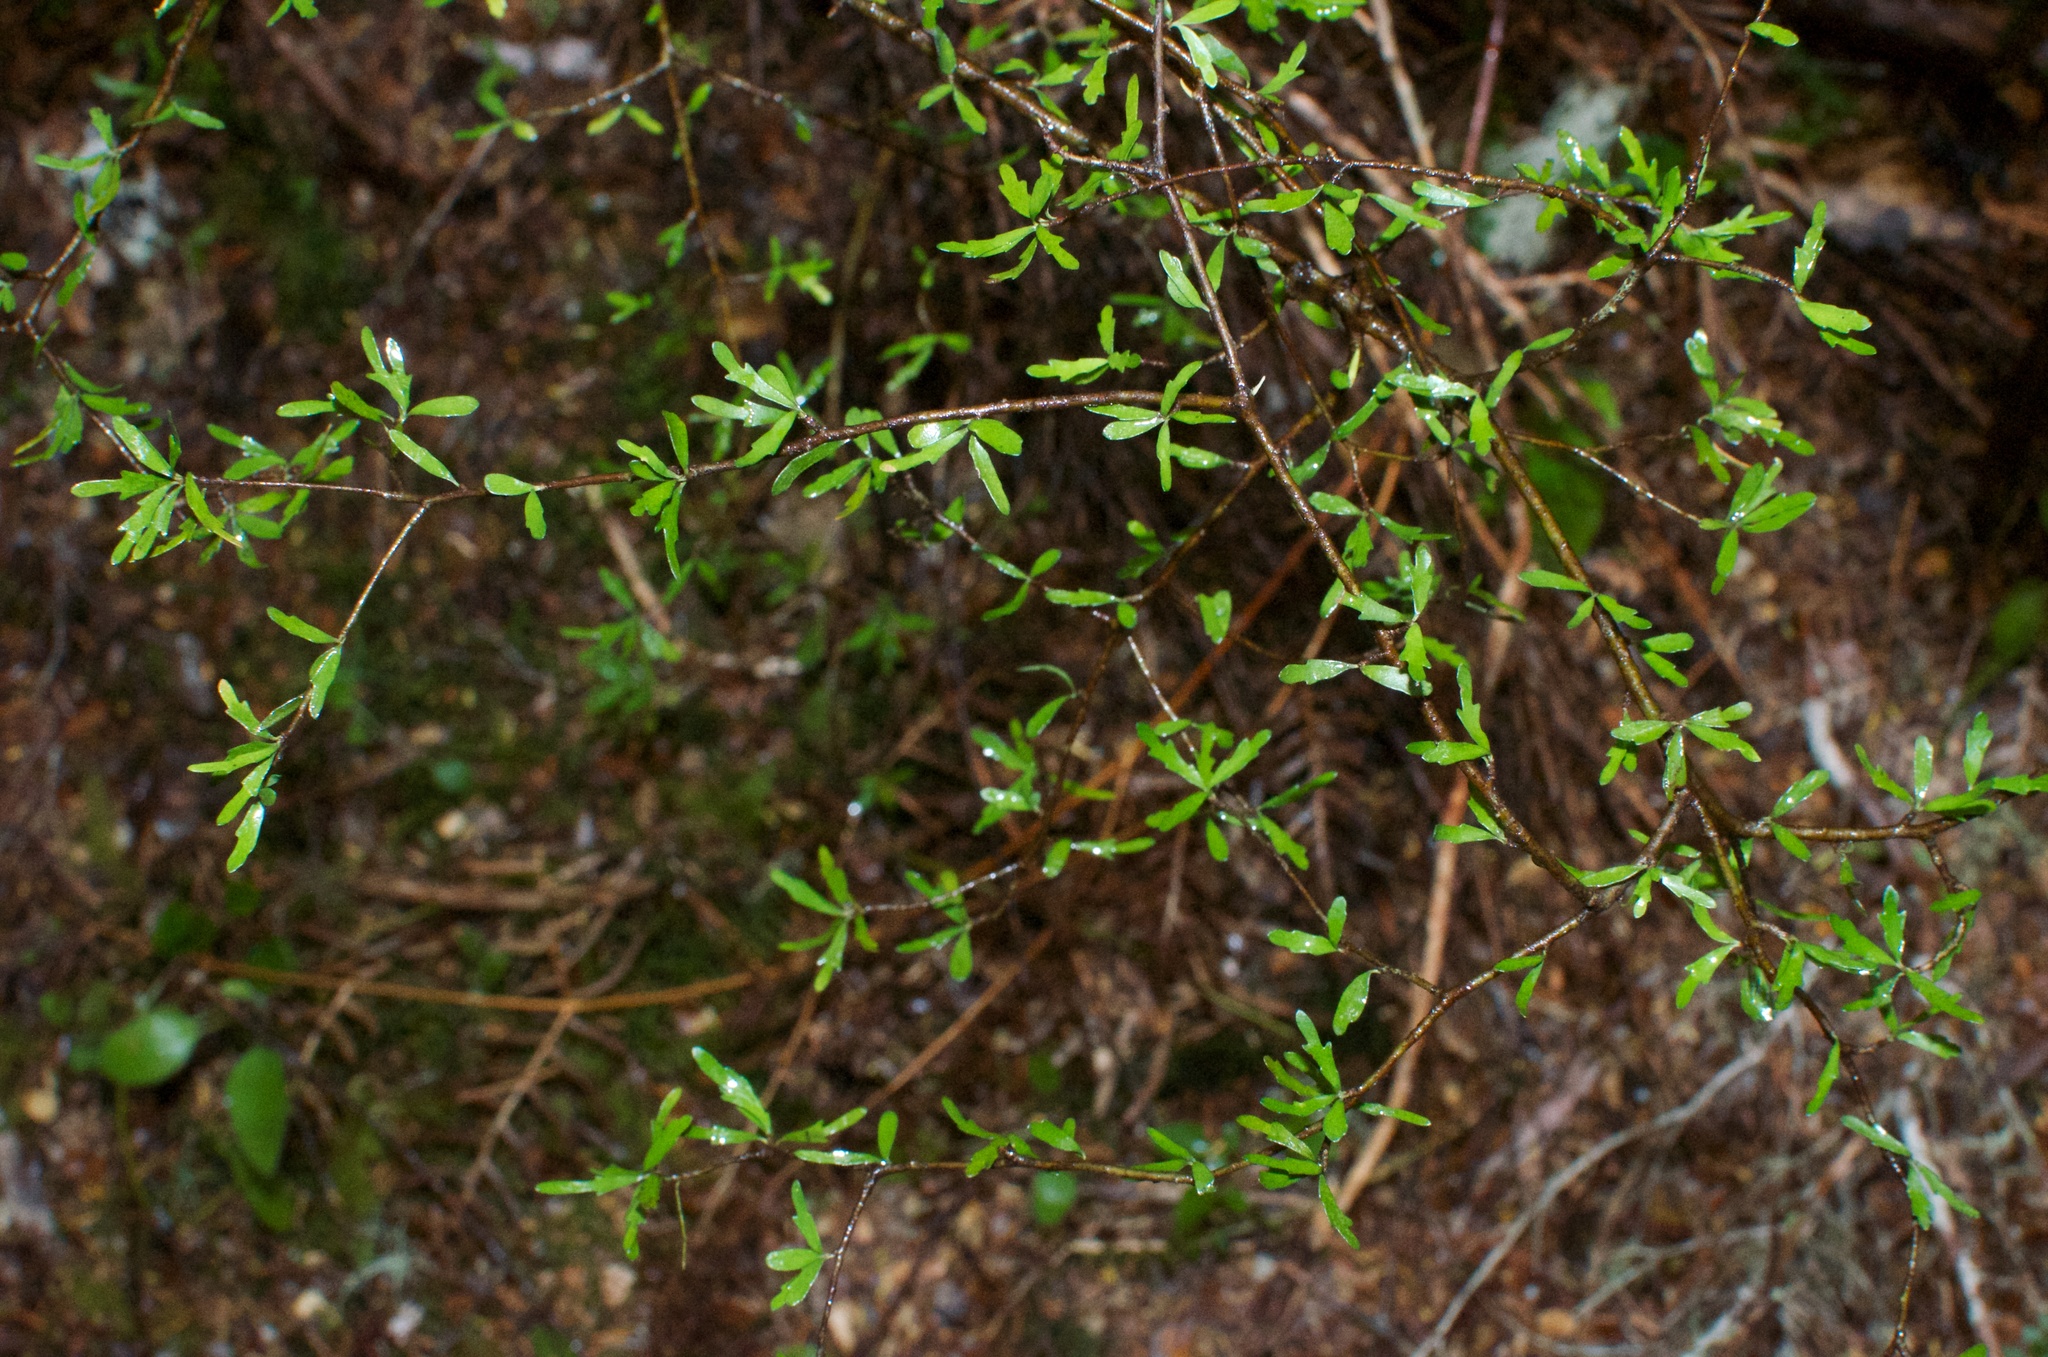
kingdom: Plantae
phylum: Tracheophyta
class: Magnoliopsida
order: Oxalidales
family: Elaeocarpaceae
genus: Aristotelia
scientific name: Aristotelia fruticosa
